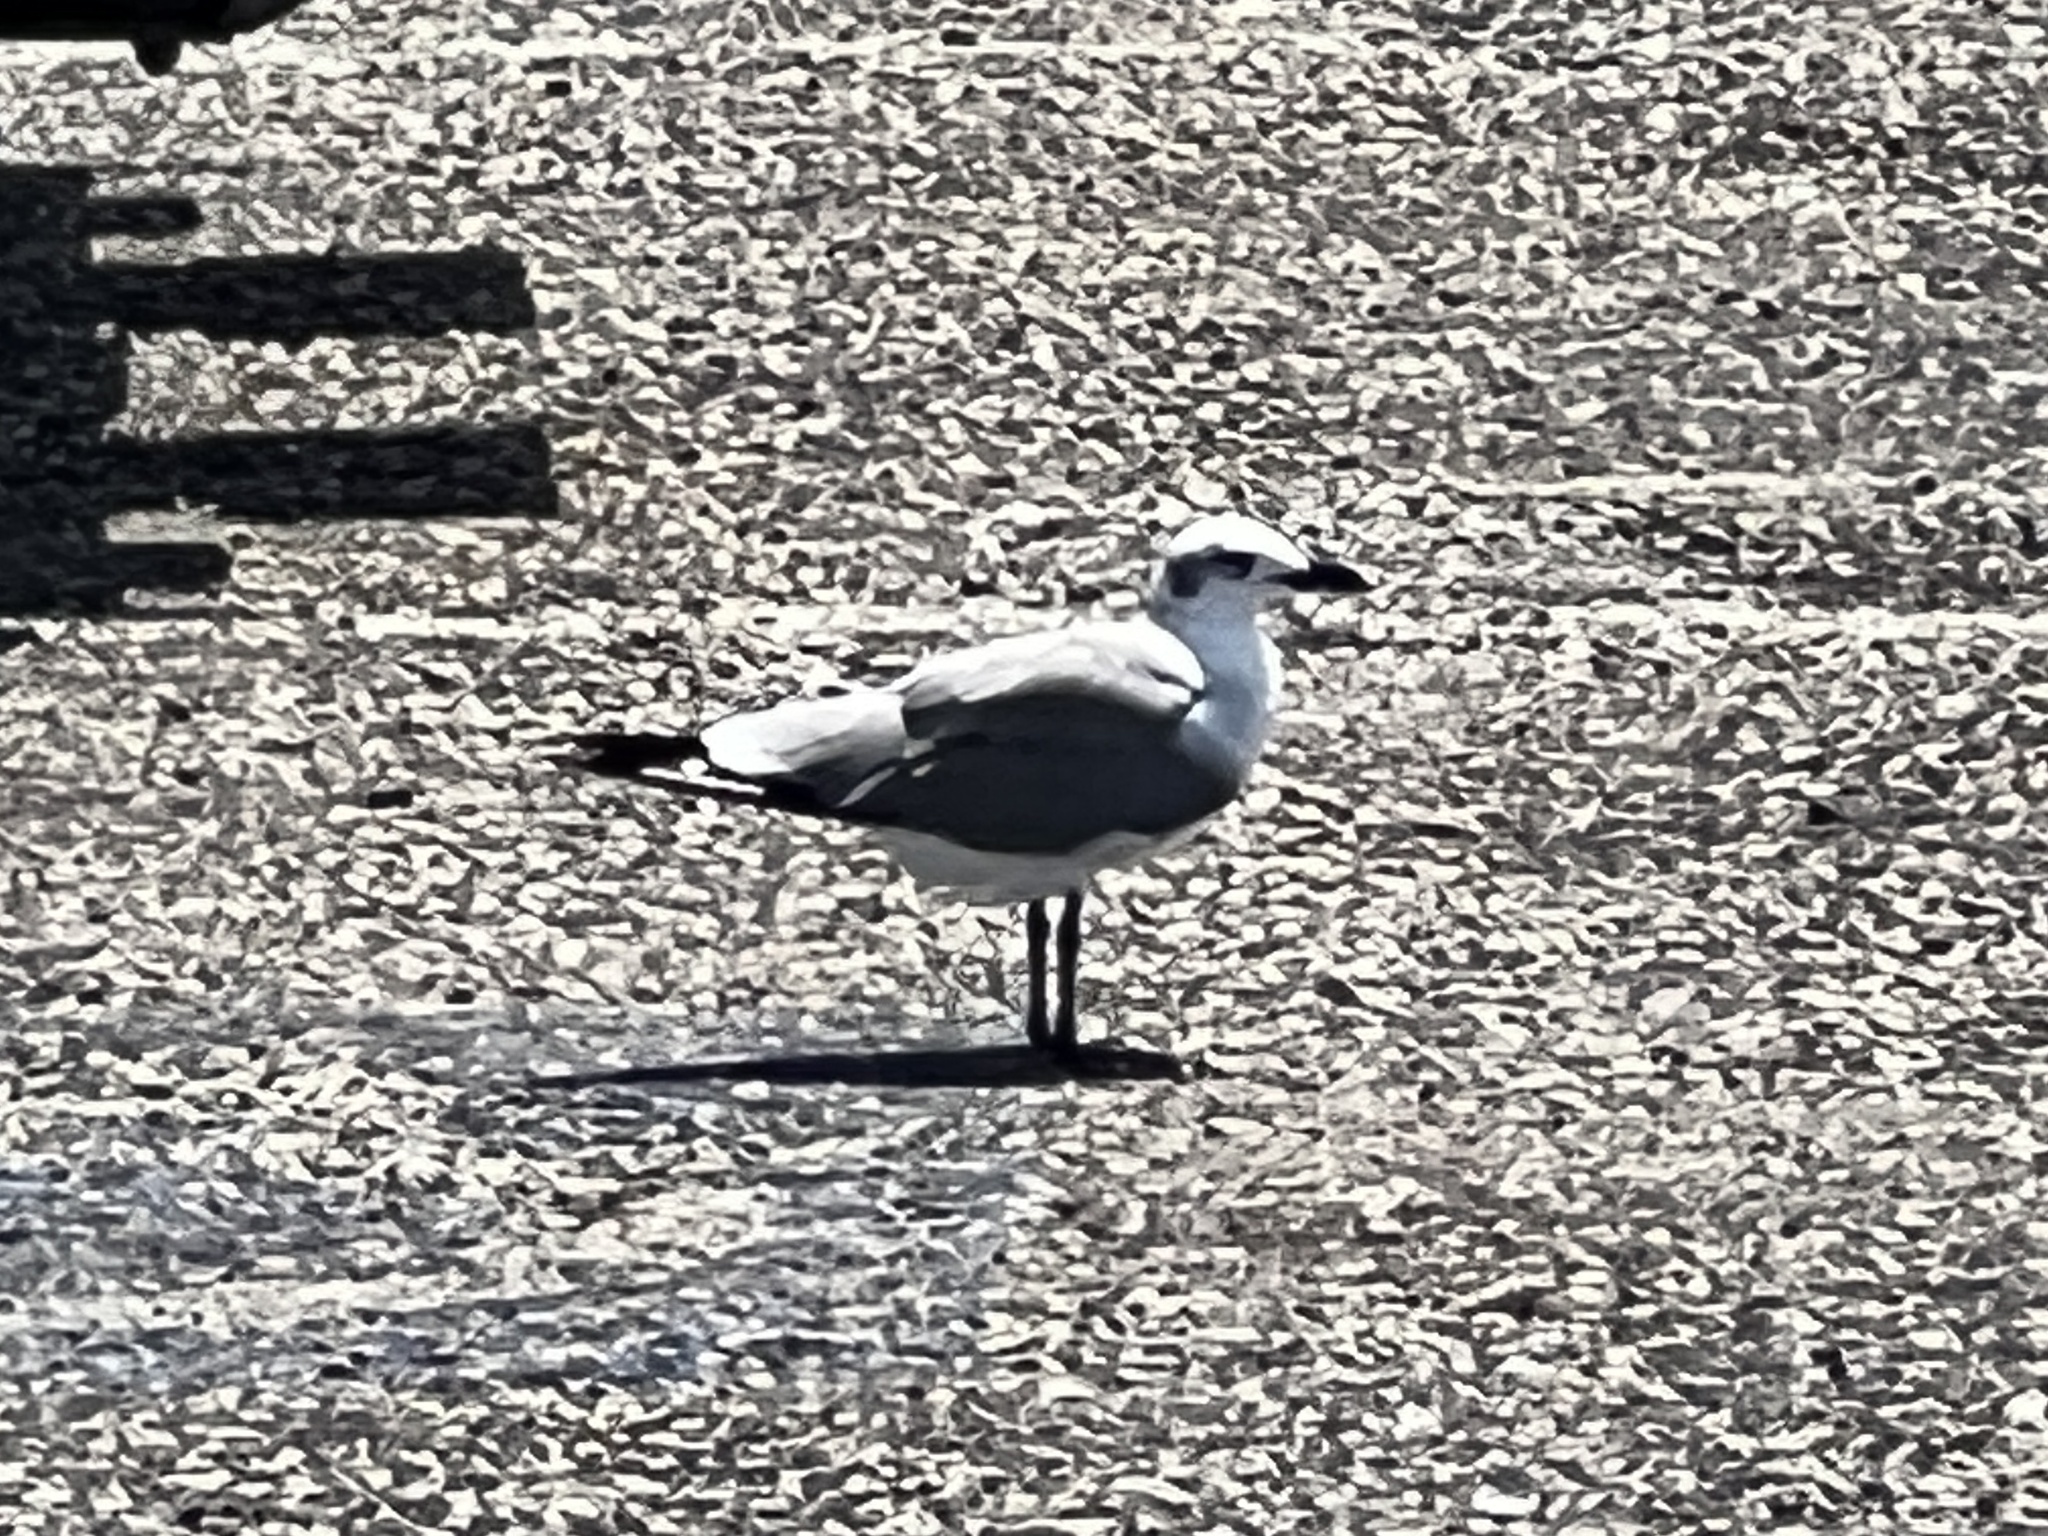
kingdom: Animalia
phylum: Chordata
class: Aves
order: Charadriiformes
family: Laridae
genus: Leucophaeus
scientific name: Leucophaeus atricilla
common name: Laughing gull
